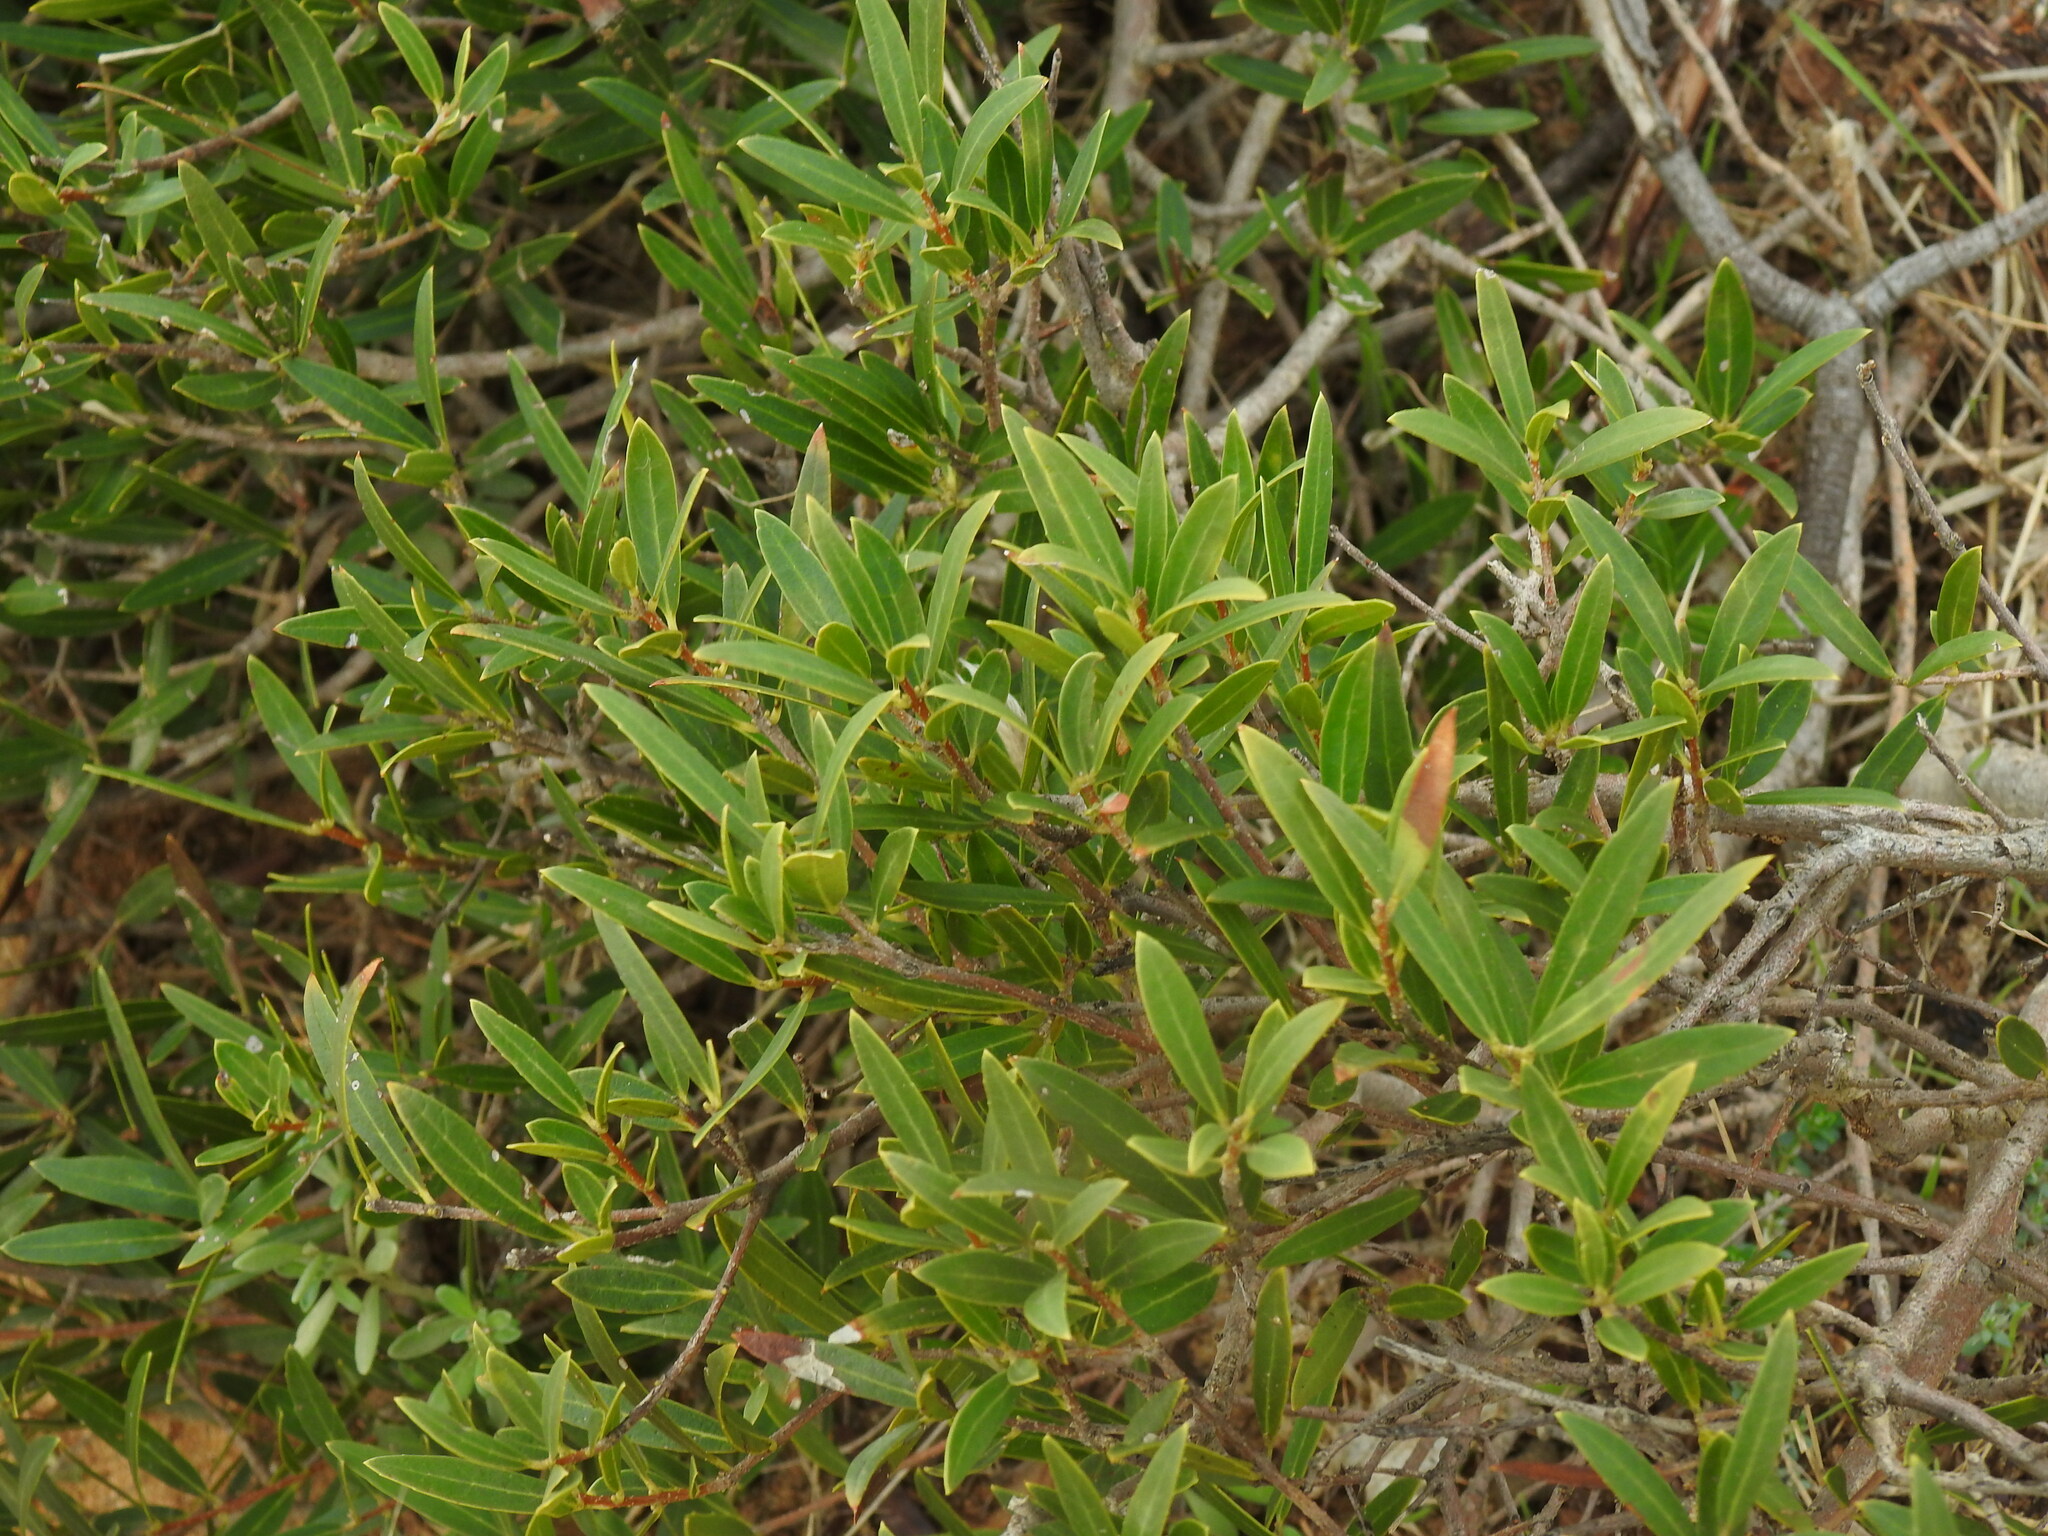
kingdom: Plantae
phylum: Tracheophyta
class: Magnoliopsida
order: Lamiales
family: Oleaceae
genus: Phillyrea
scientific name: Phillyrea angustifolia
